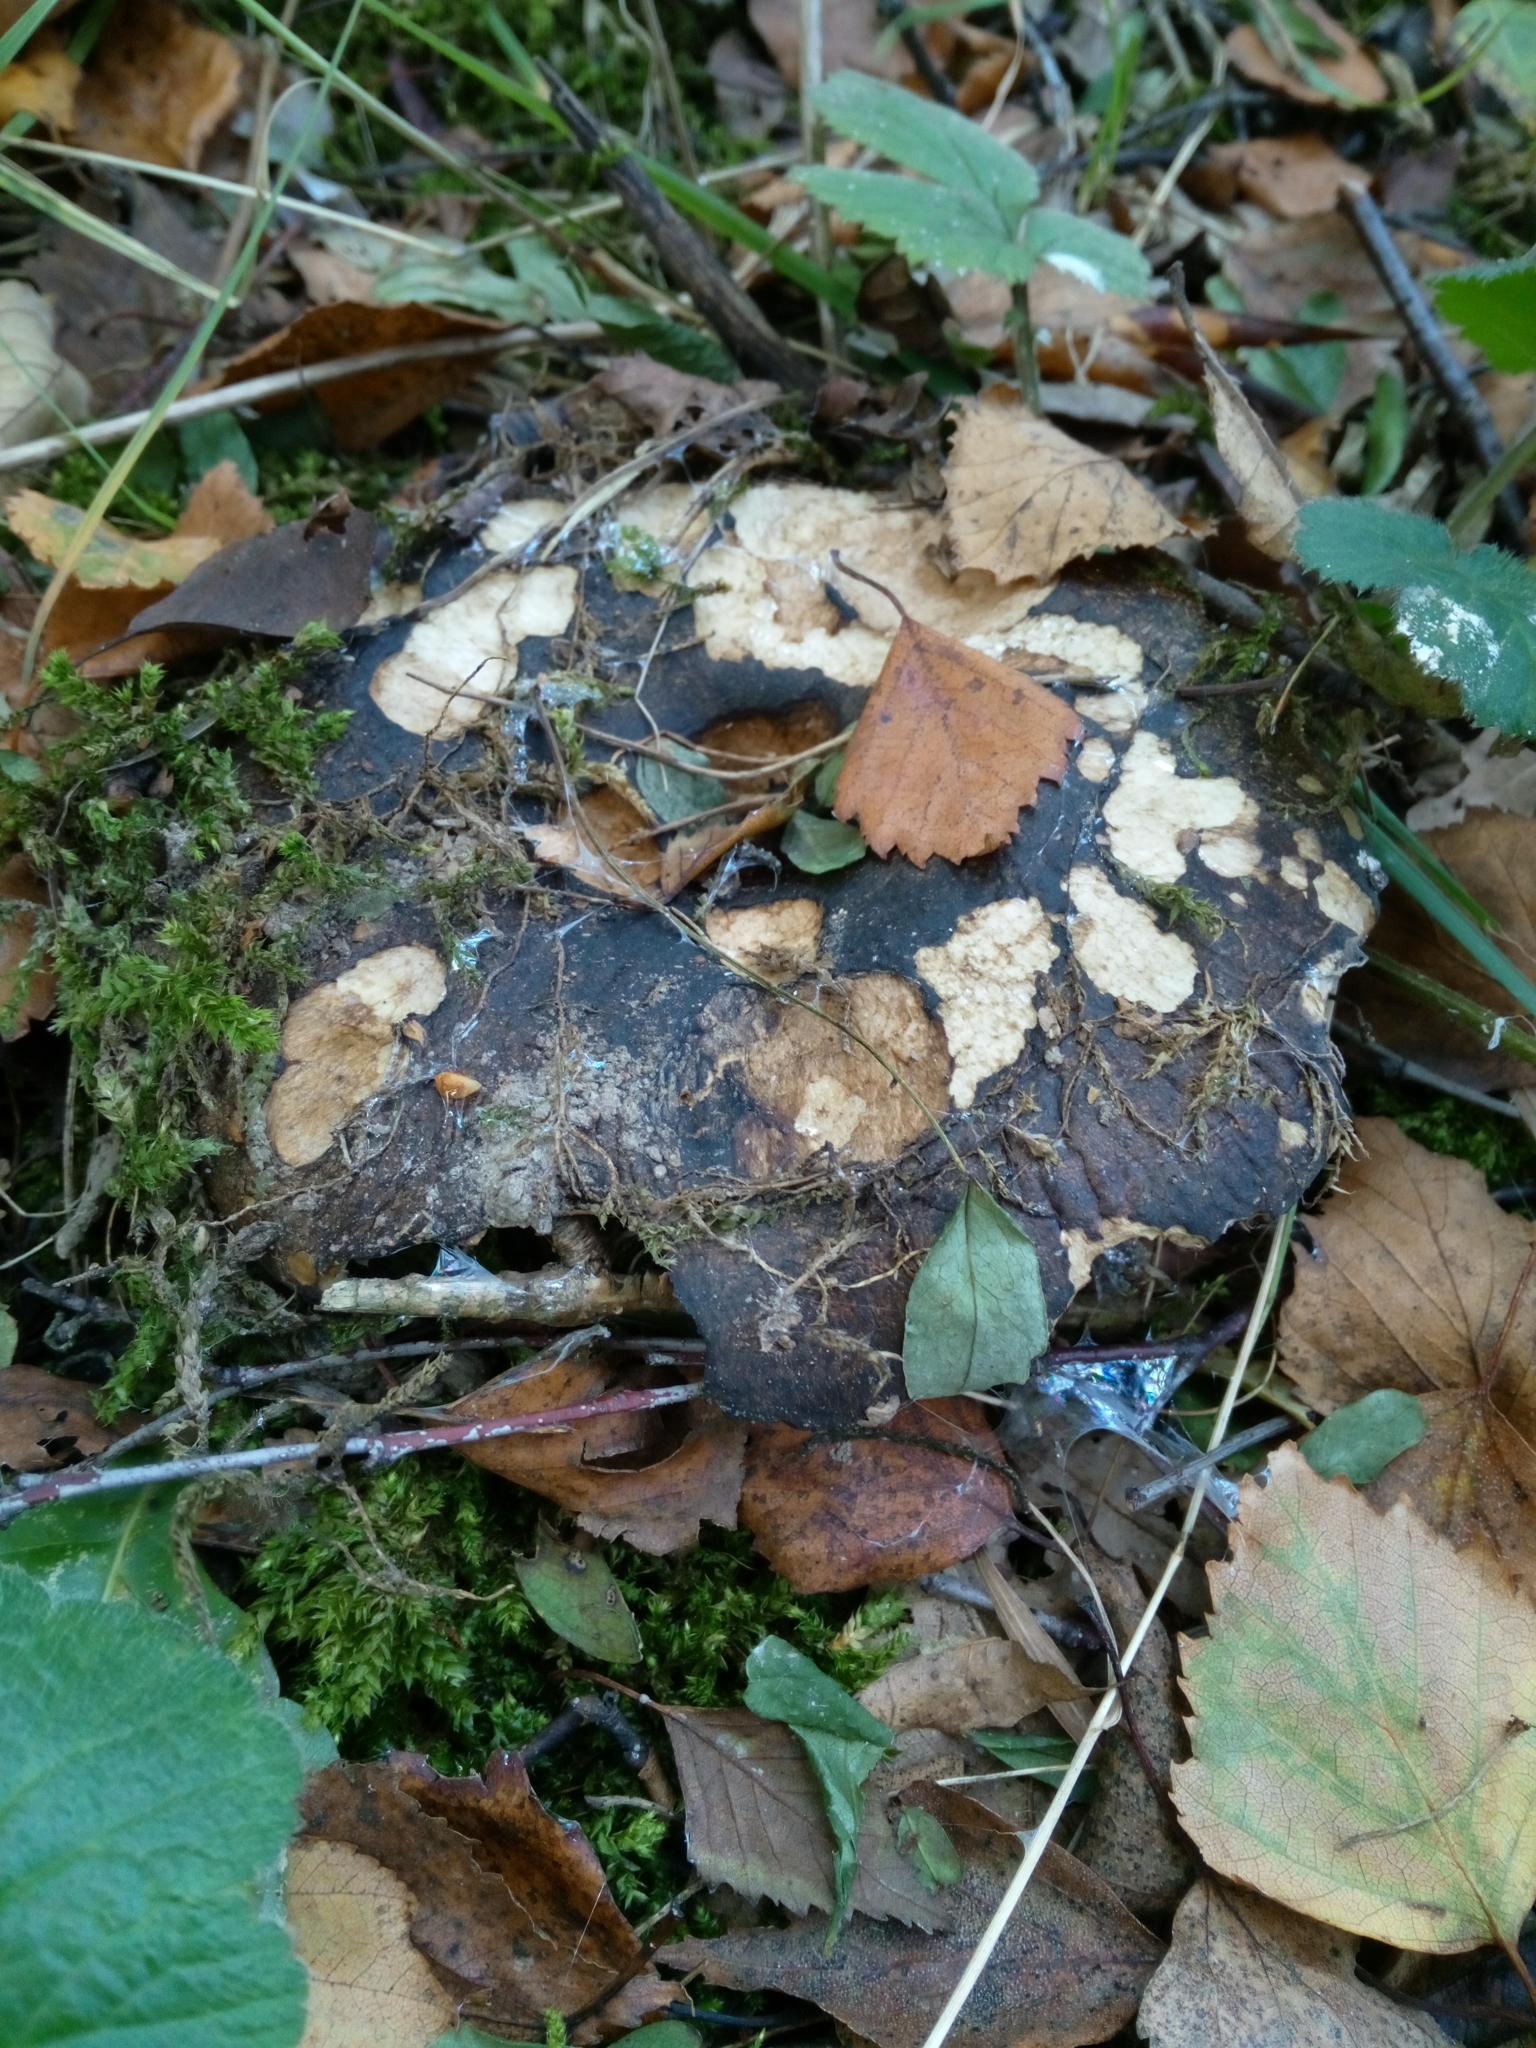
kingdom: Fungi
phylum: Basidiomycota
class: Agaricomycetes
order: Russulales
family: Russulaceae
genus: Lactarius
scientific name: Lactarius turpis
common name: Ugly milk-cap
